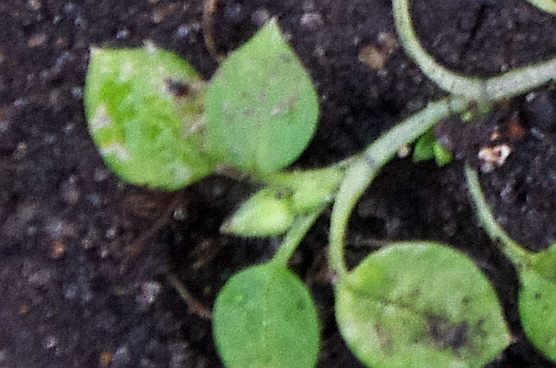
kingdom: Plantae
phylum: Tracheophyta
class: Magnoliopsida
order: Caryophyllales
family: Caryophyllaceae
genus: Stellaria
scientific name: Stellaria media
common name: Common chickweed
